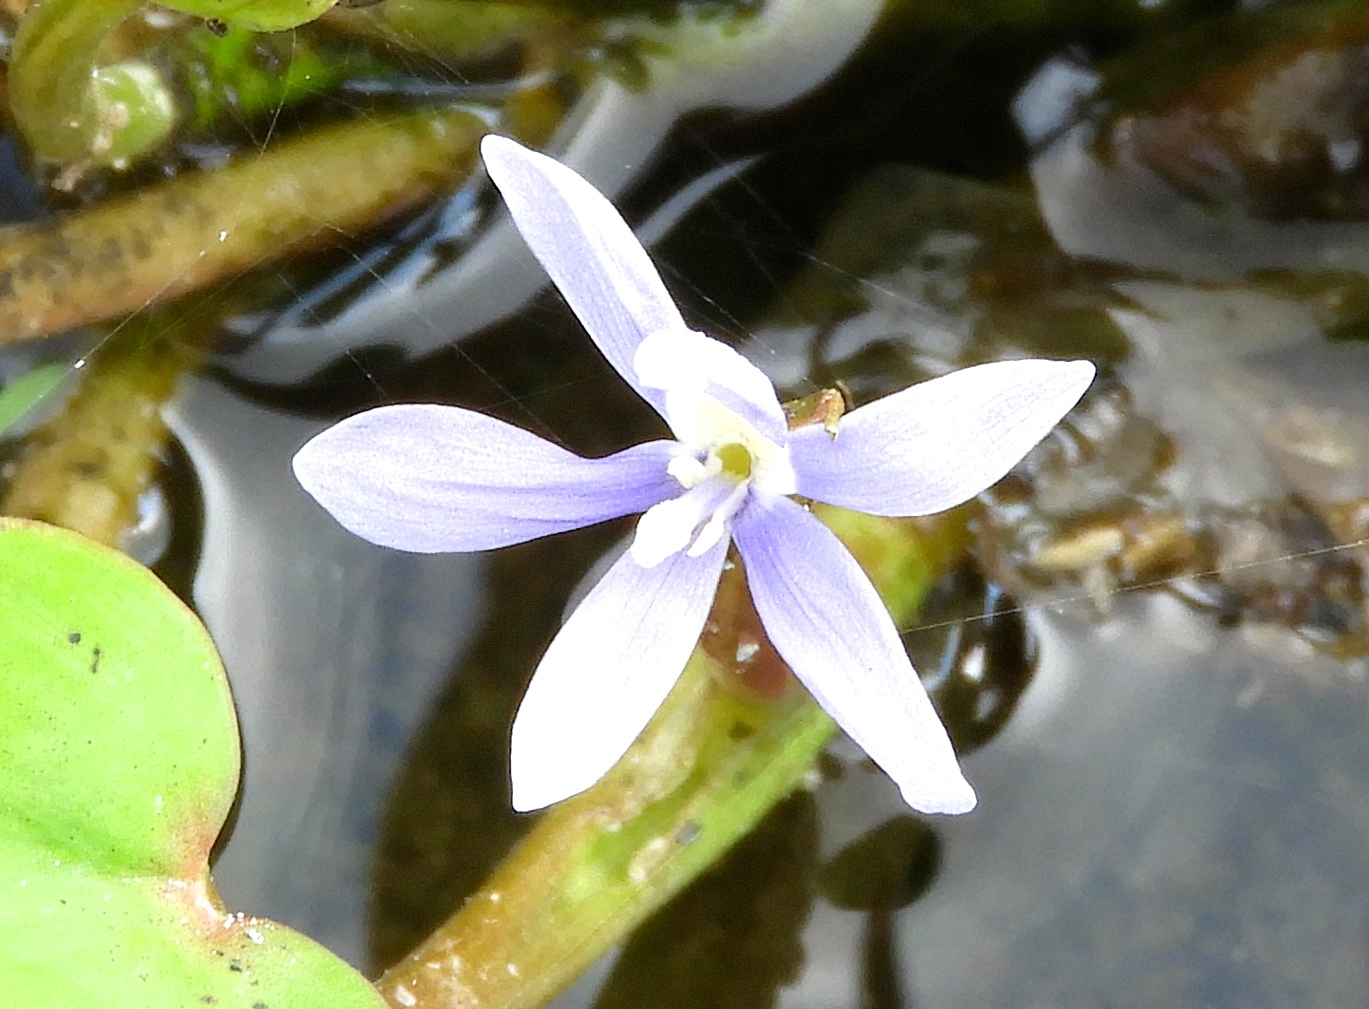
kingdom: Plantae
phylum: Tracheophyta
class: Liliopsida
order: Commelinales
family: Pontederiaceae
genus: Heteranthera
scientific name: Heteranthera limosa
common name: Blue mud-plantain
